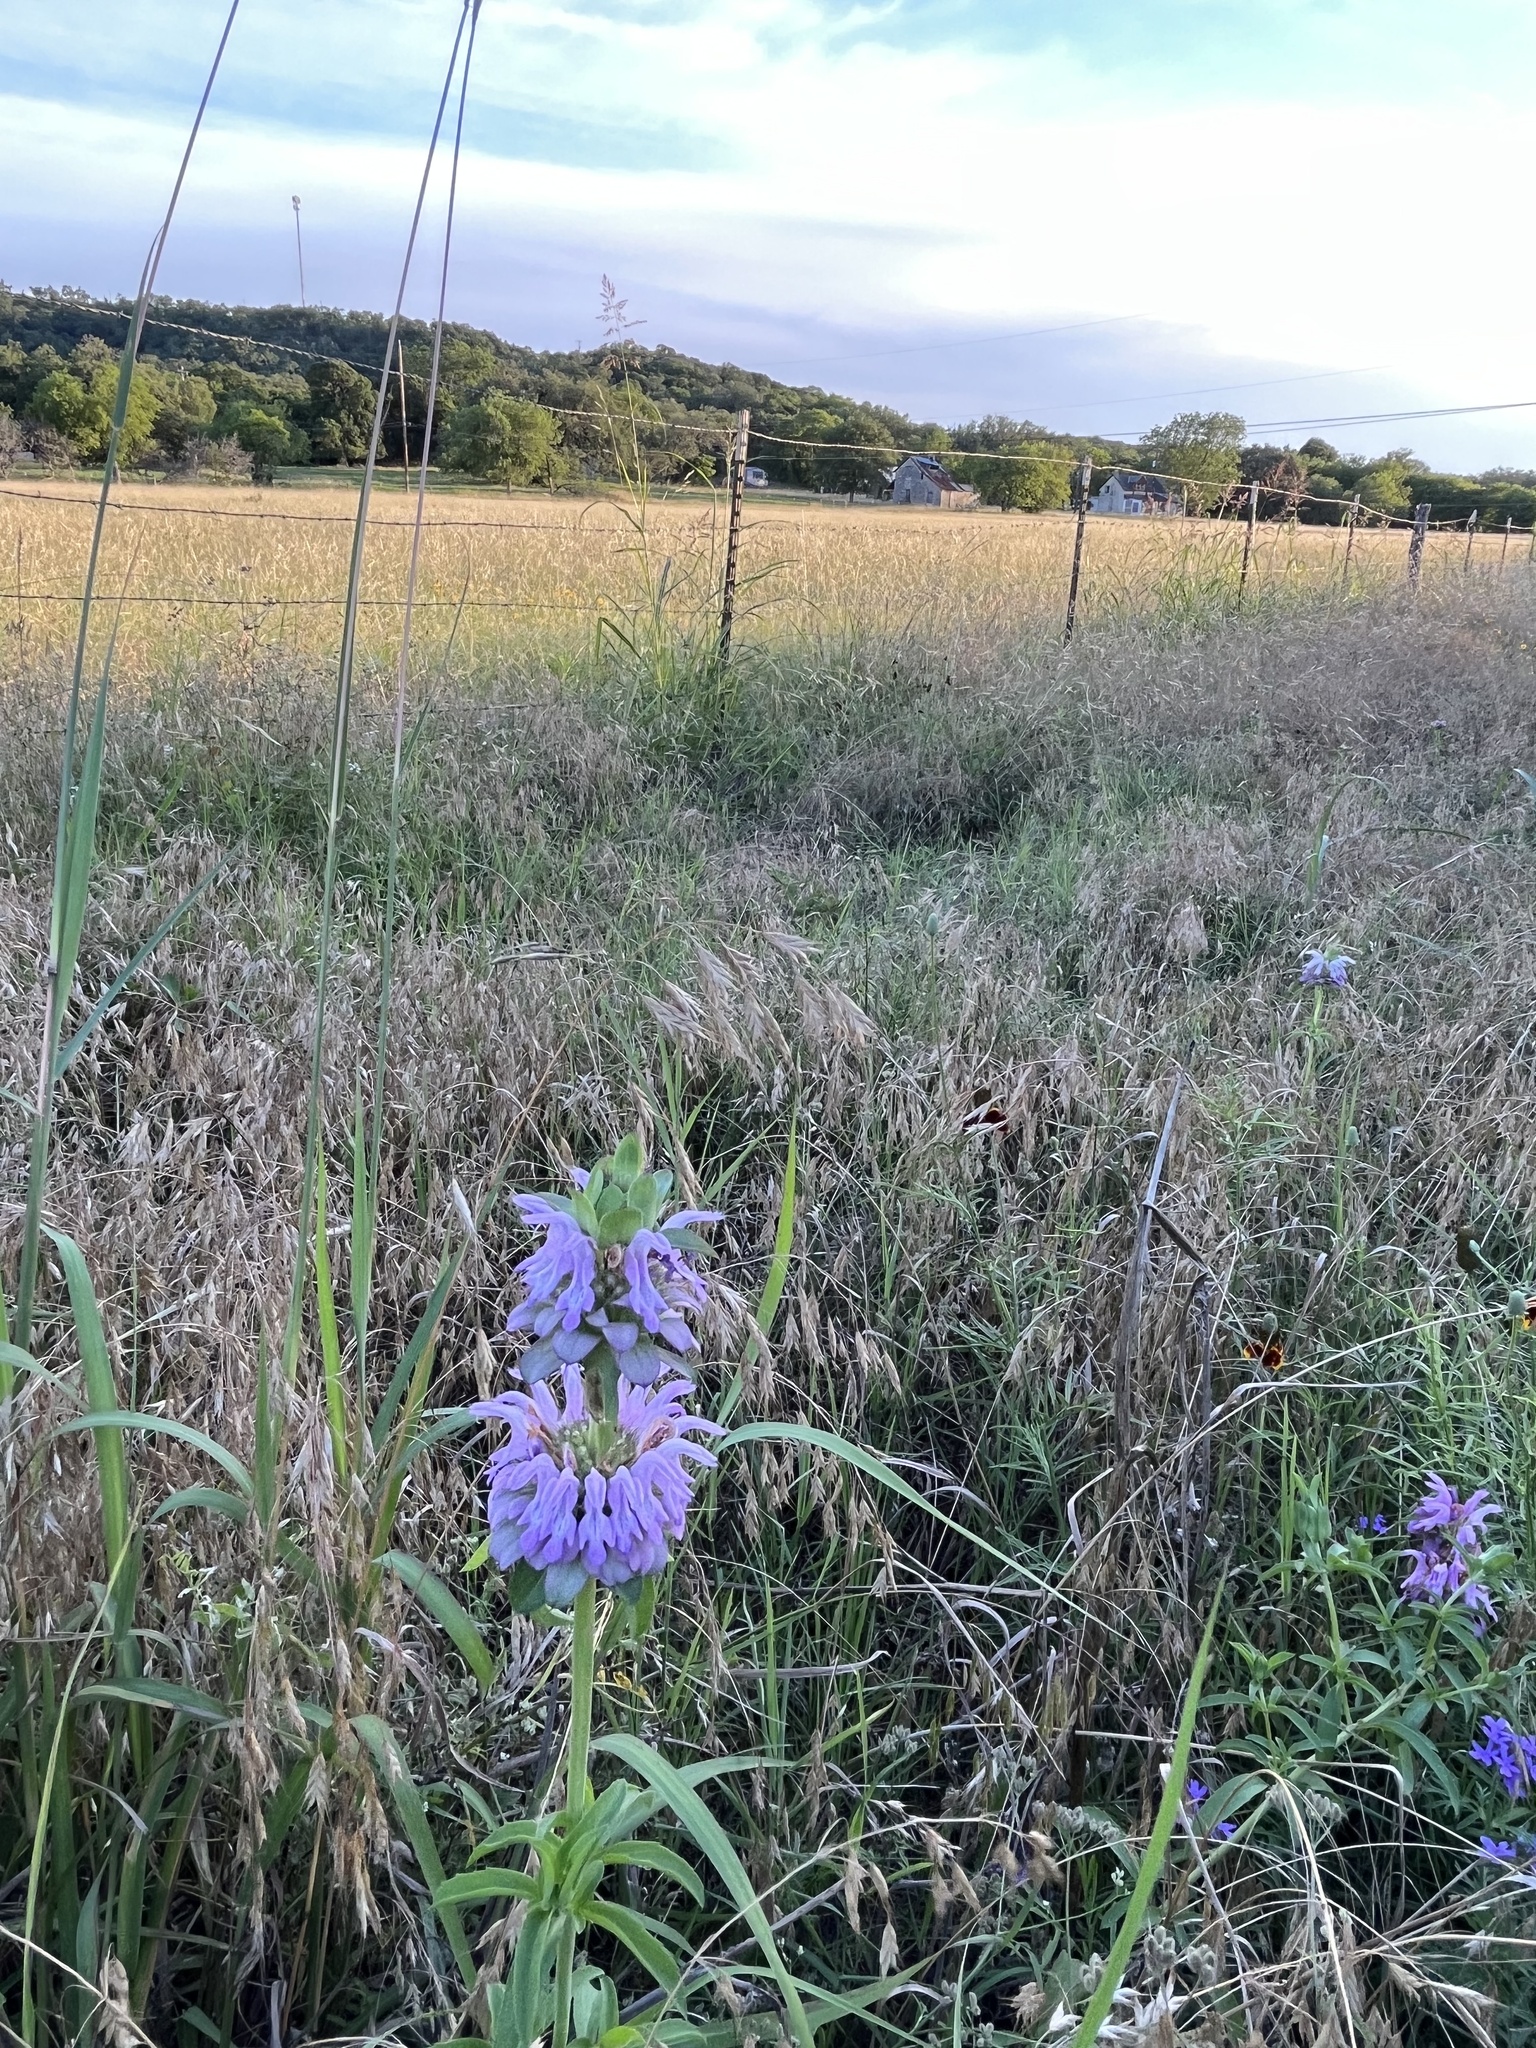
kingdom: Plantae
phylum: Tracheophyta
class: Magnoliopsida
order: Lamiales
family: Lamiaceae
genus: Monarda
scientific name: Monarda citriodora
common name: Lemon beebalm
